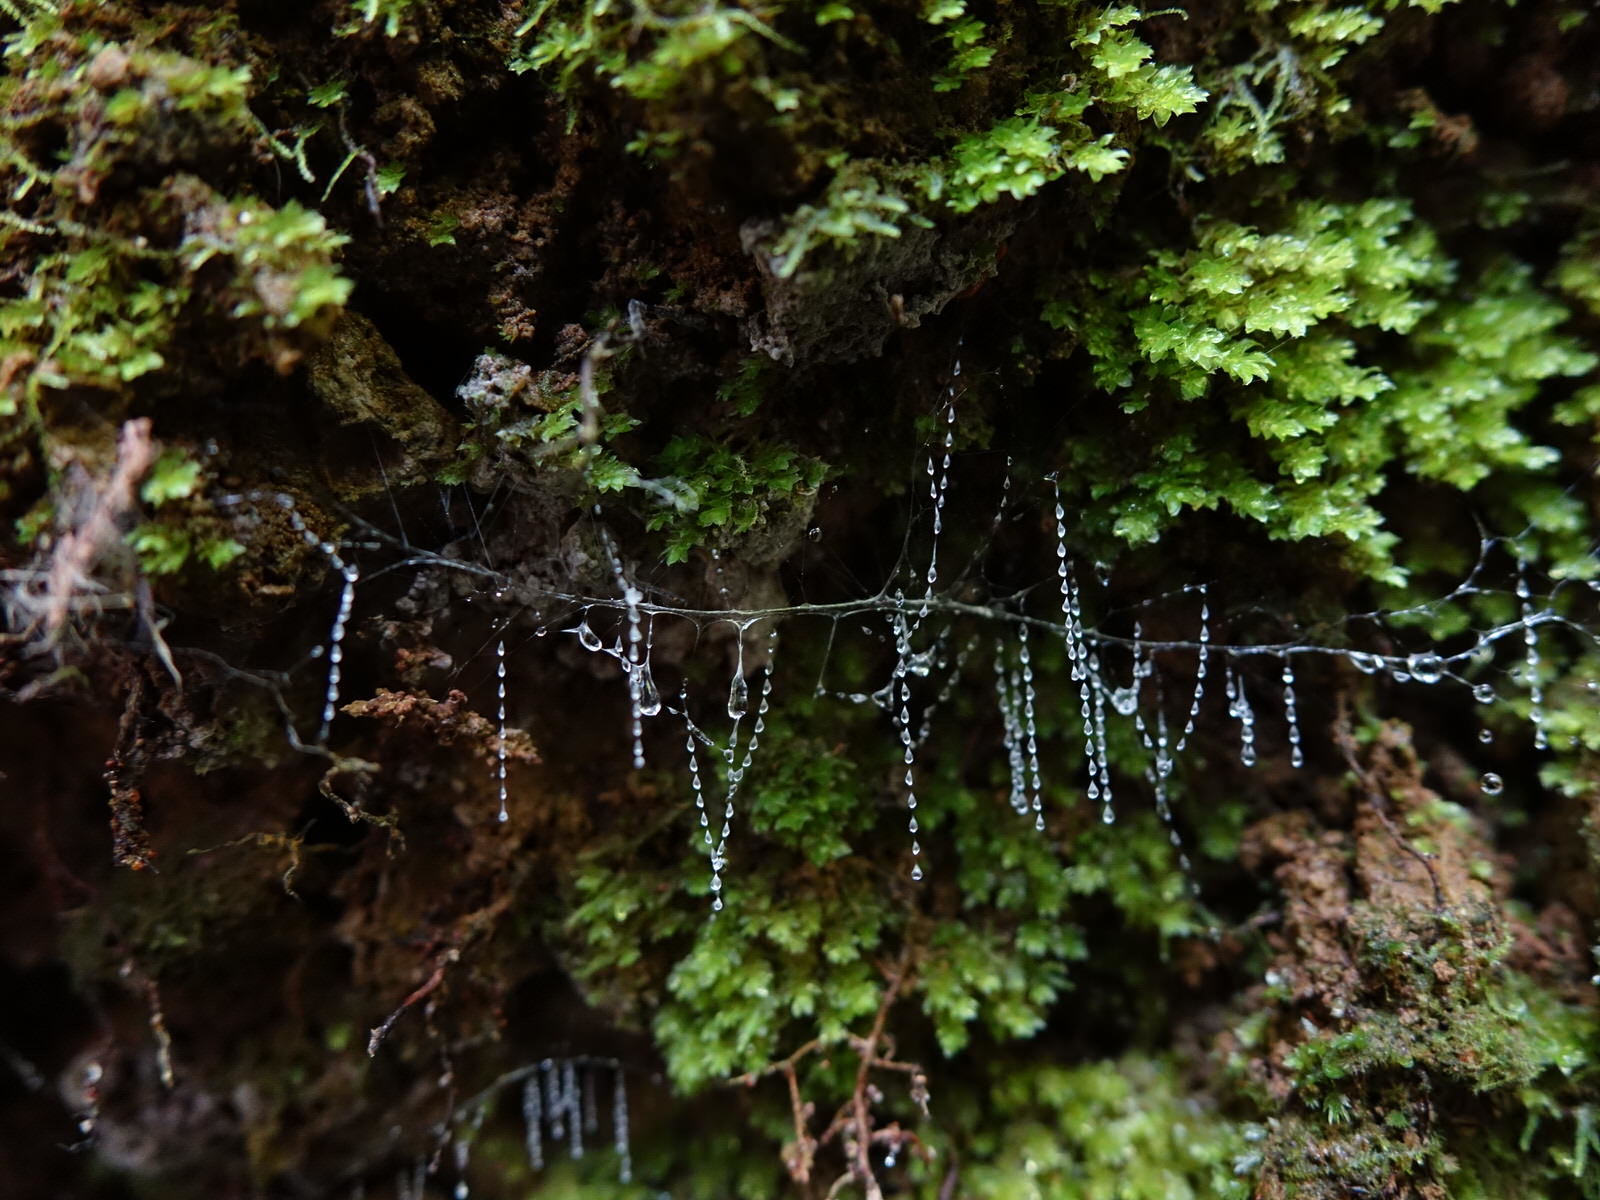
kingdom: Animalia
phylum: Arthropoda
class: Insecta
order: Diptera
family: Keroplatidae
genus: Arachnocampa
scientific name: Arachnocampa luminosa
